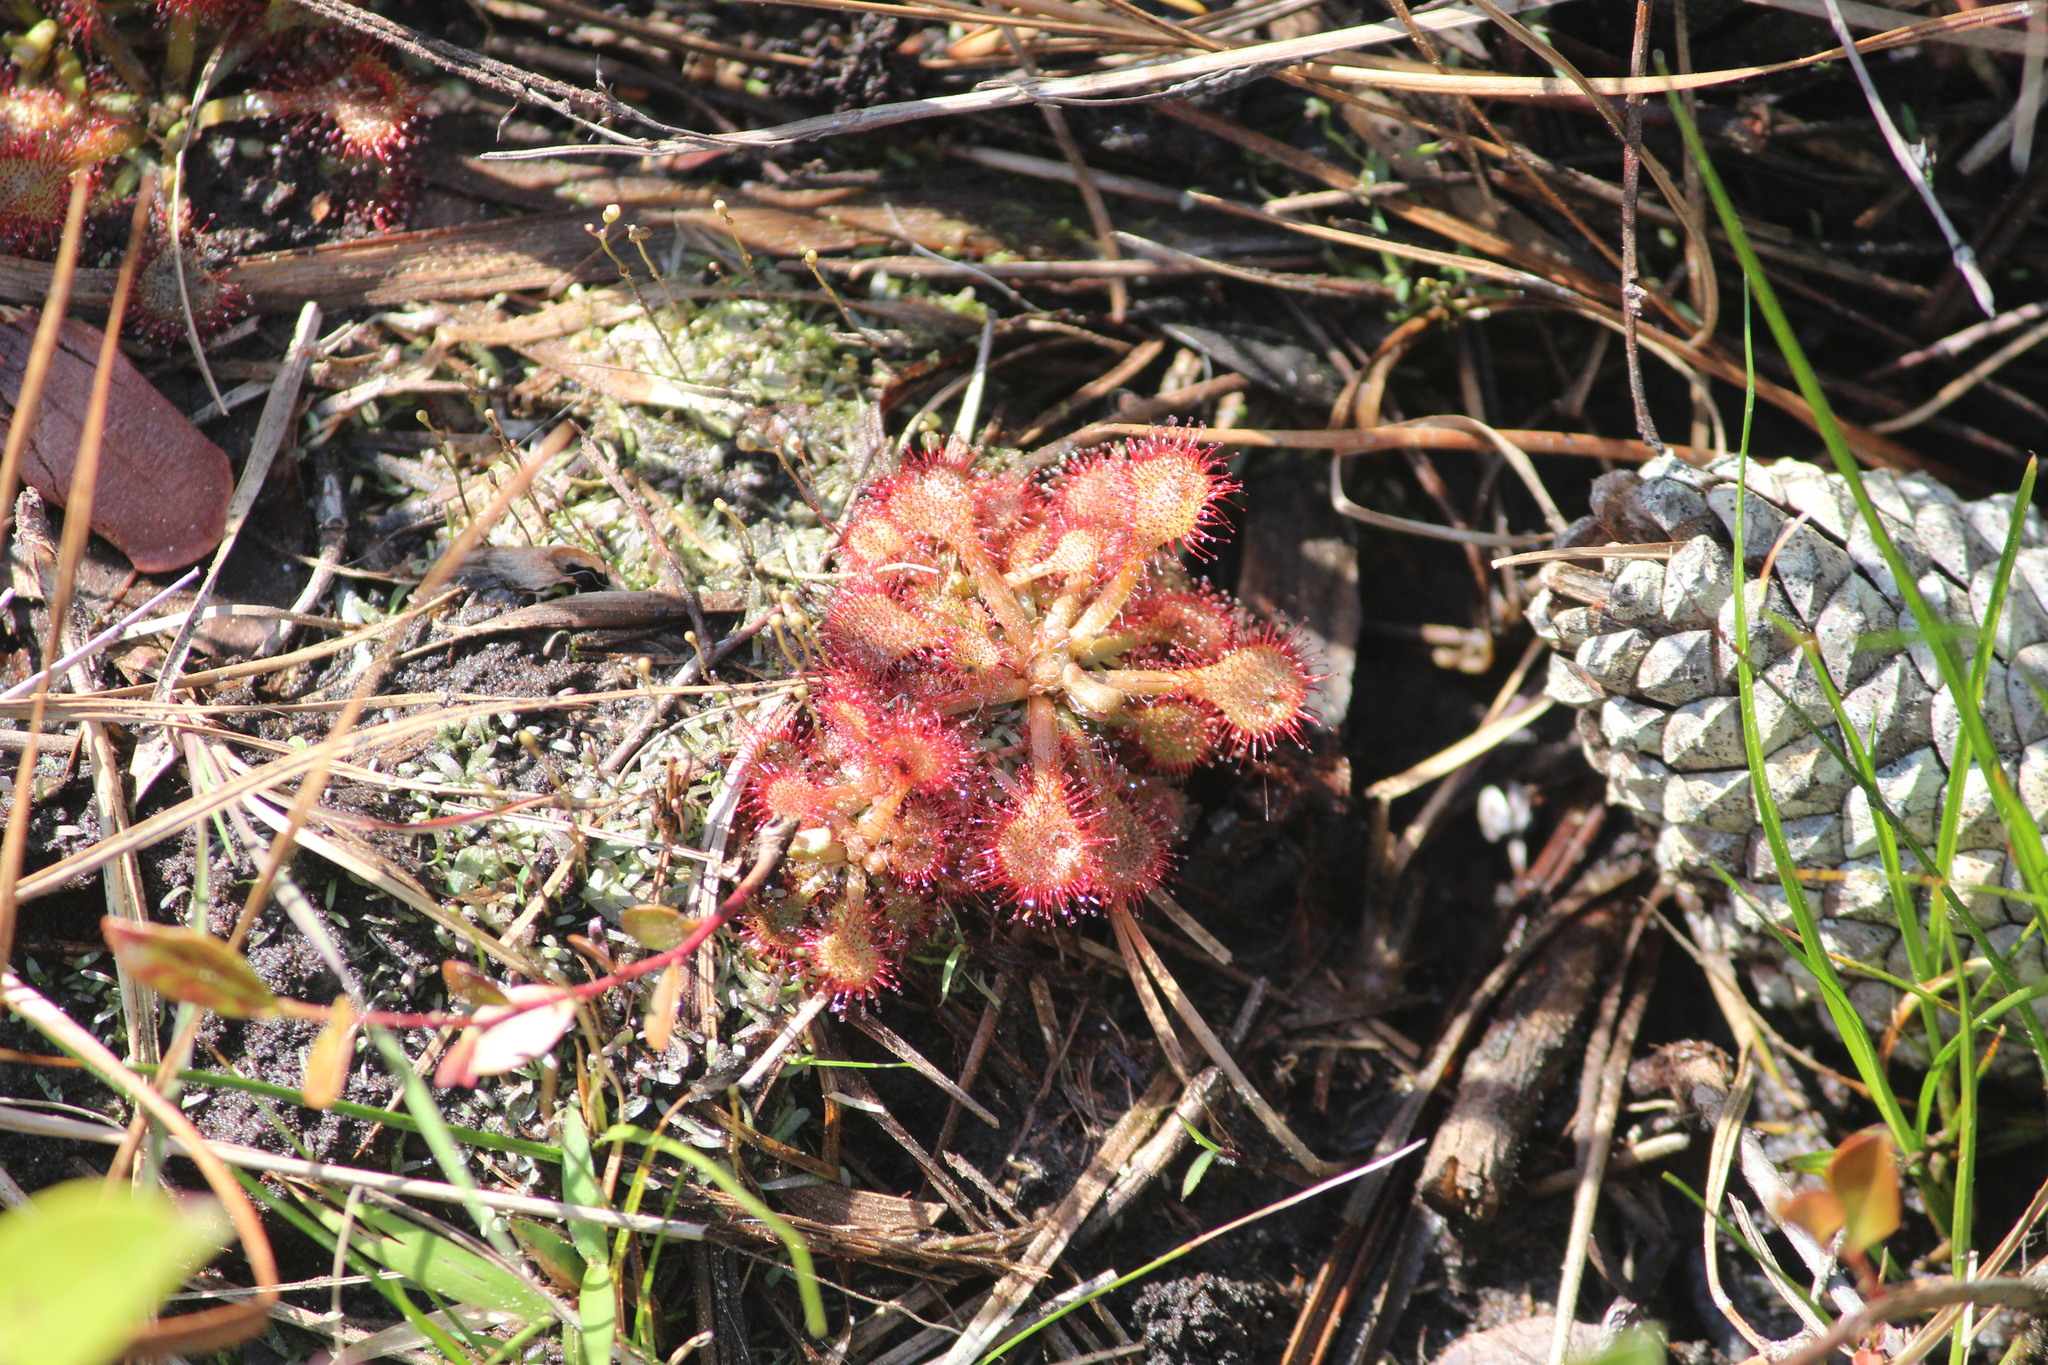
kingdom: Plantae
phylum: Tracheophyta
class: Magnoliopsida
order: Caryophyllales
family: Droseraceae
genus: Drosera
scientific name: Drosera capillaris
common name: Pink sundew
